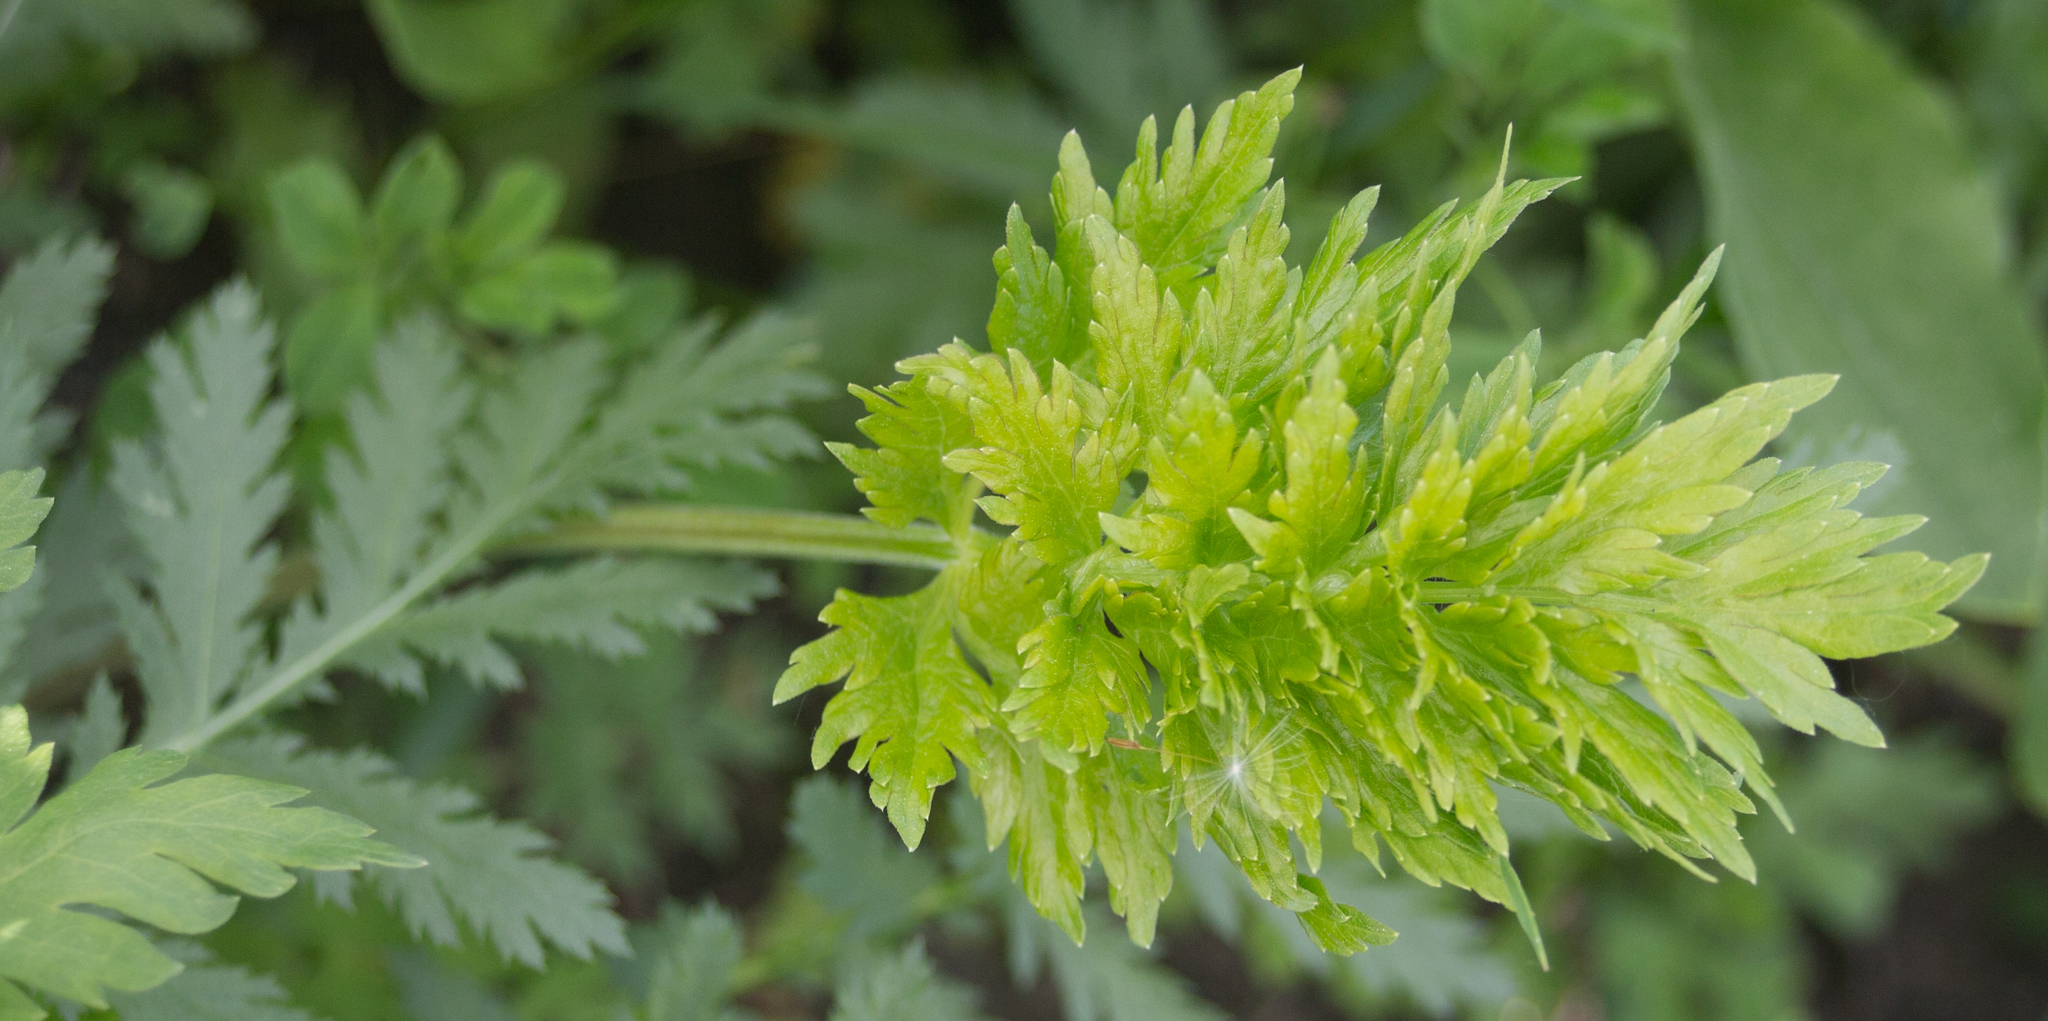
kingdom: Plantae
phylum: Tracheophyta
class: Magnoliopsida
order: Apiales
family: Apiaceae
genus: Seseli
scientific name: Seseli libanotis
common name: Mooncarrot
